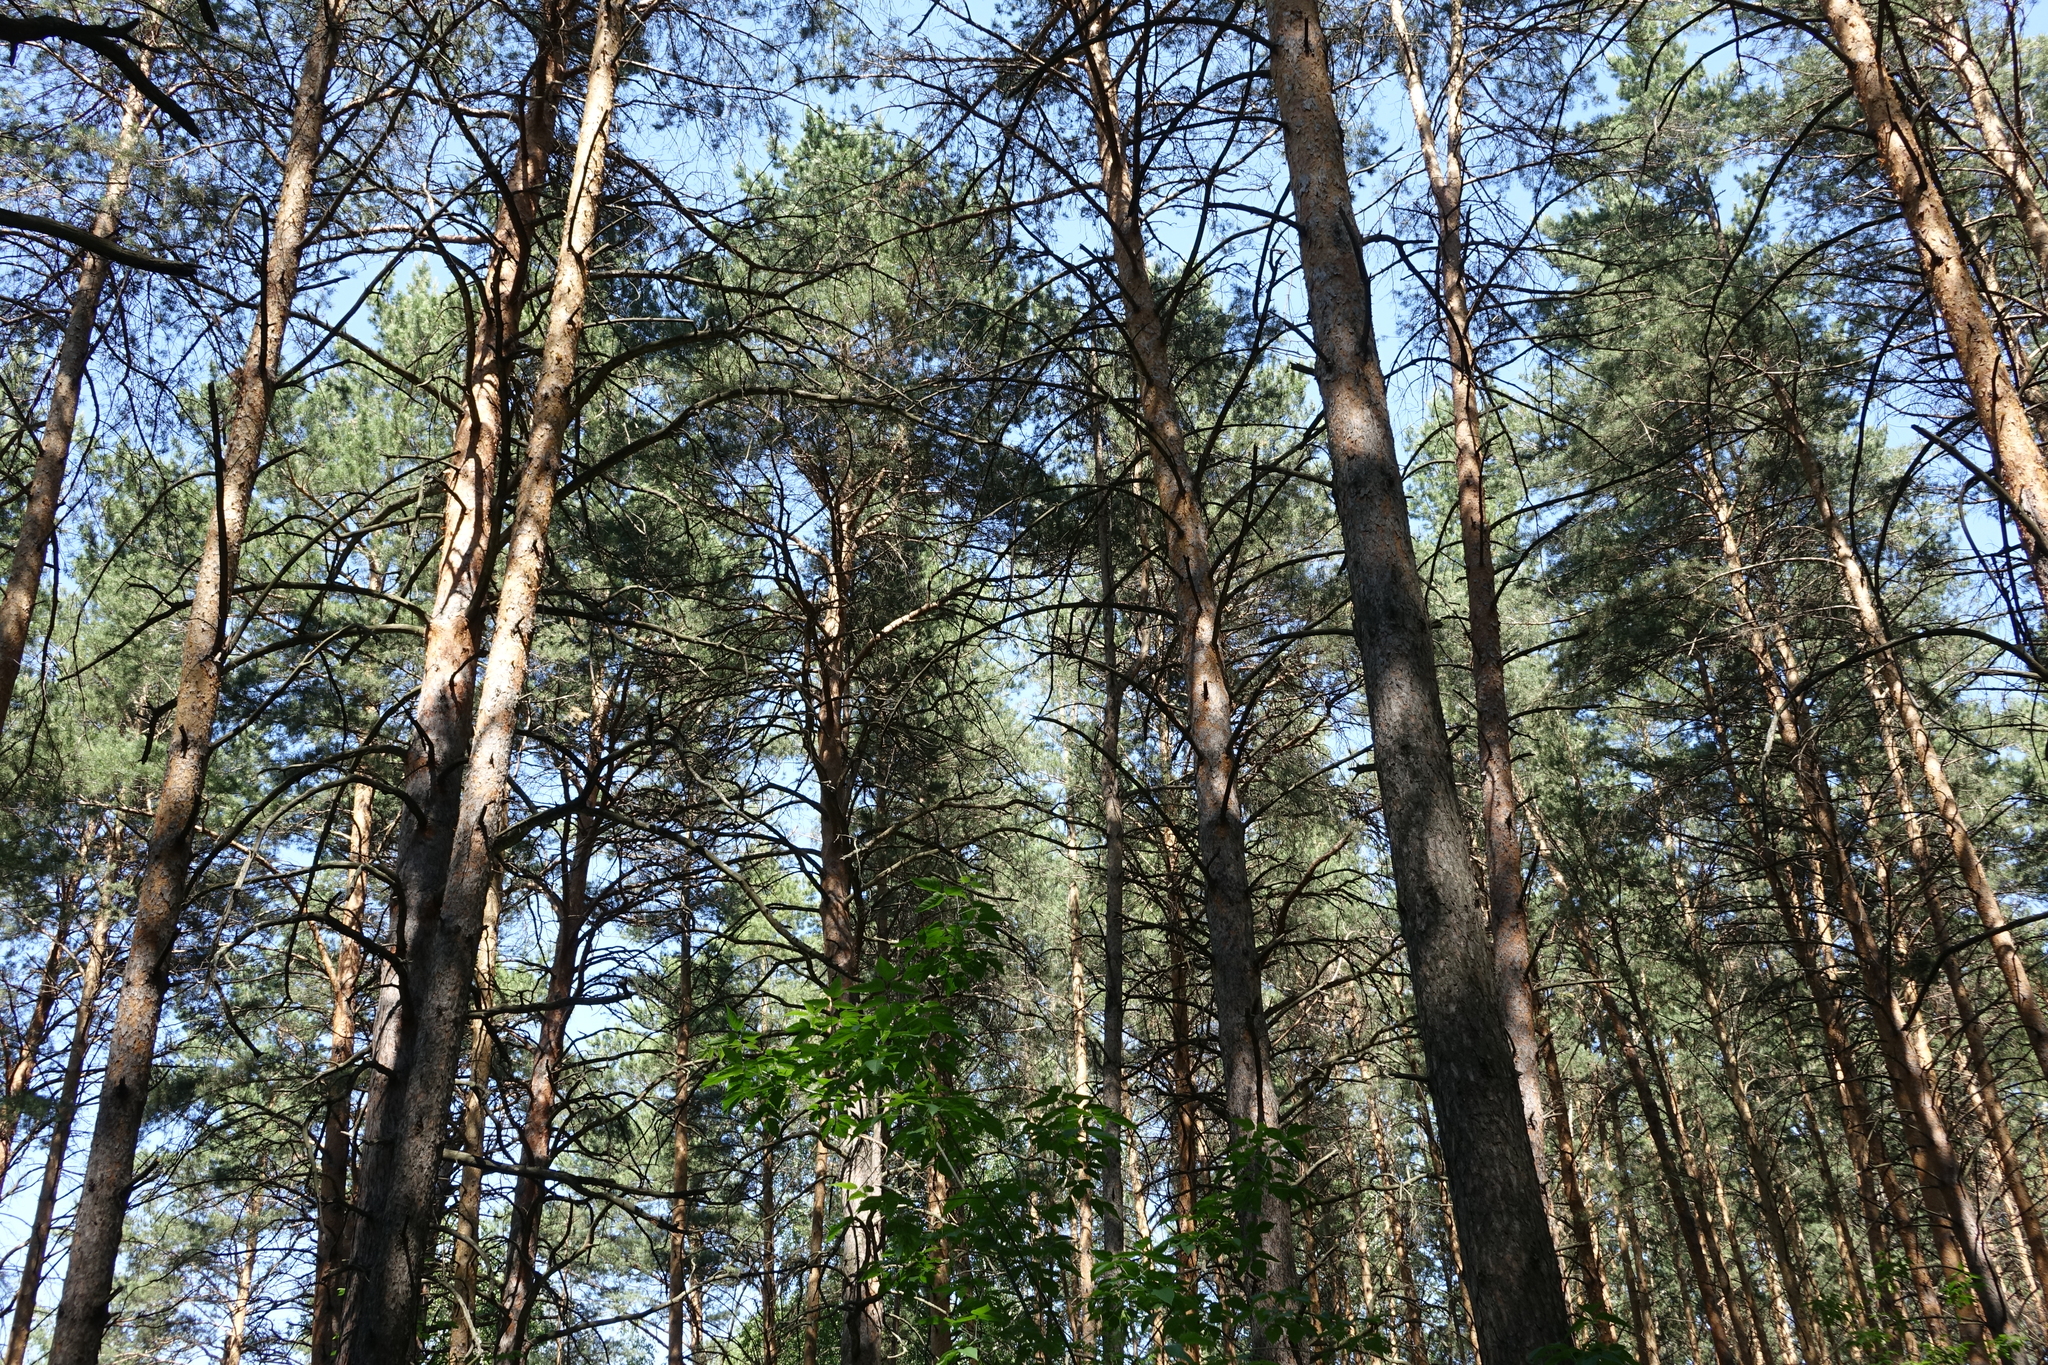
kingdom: Plantae
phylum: Tracheophyta
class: Pinopsida
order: Pinales
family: Pinaceae
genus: Pinus
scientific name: Pinus sylvestris
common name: Scots pine
